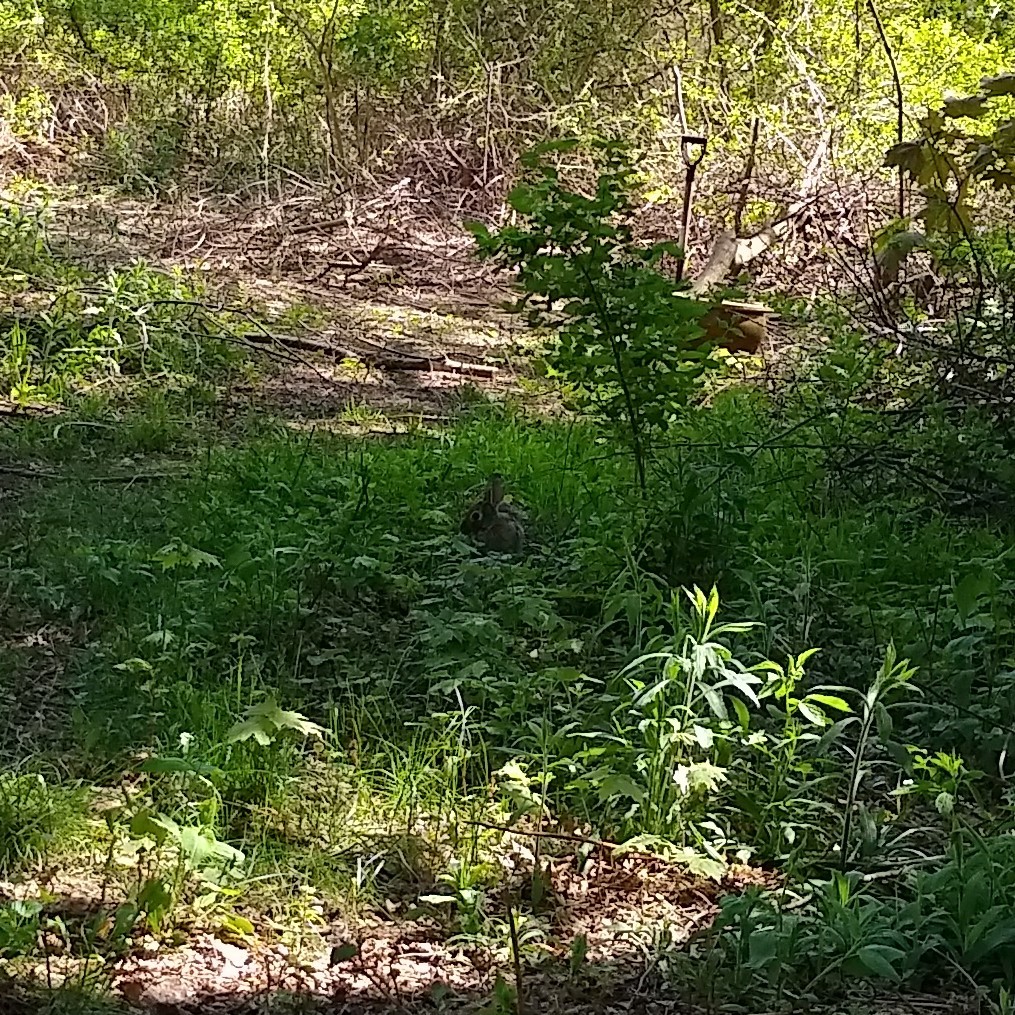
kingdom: Animalia
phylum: Chordata
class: Mammalia
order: Lagomorpha
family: Leporidae
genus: Sylvilagus
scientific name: Sylvilagus floridanus
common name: Eastern cottontail
